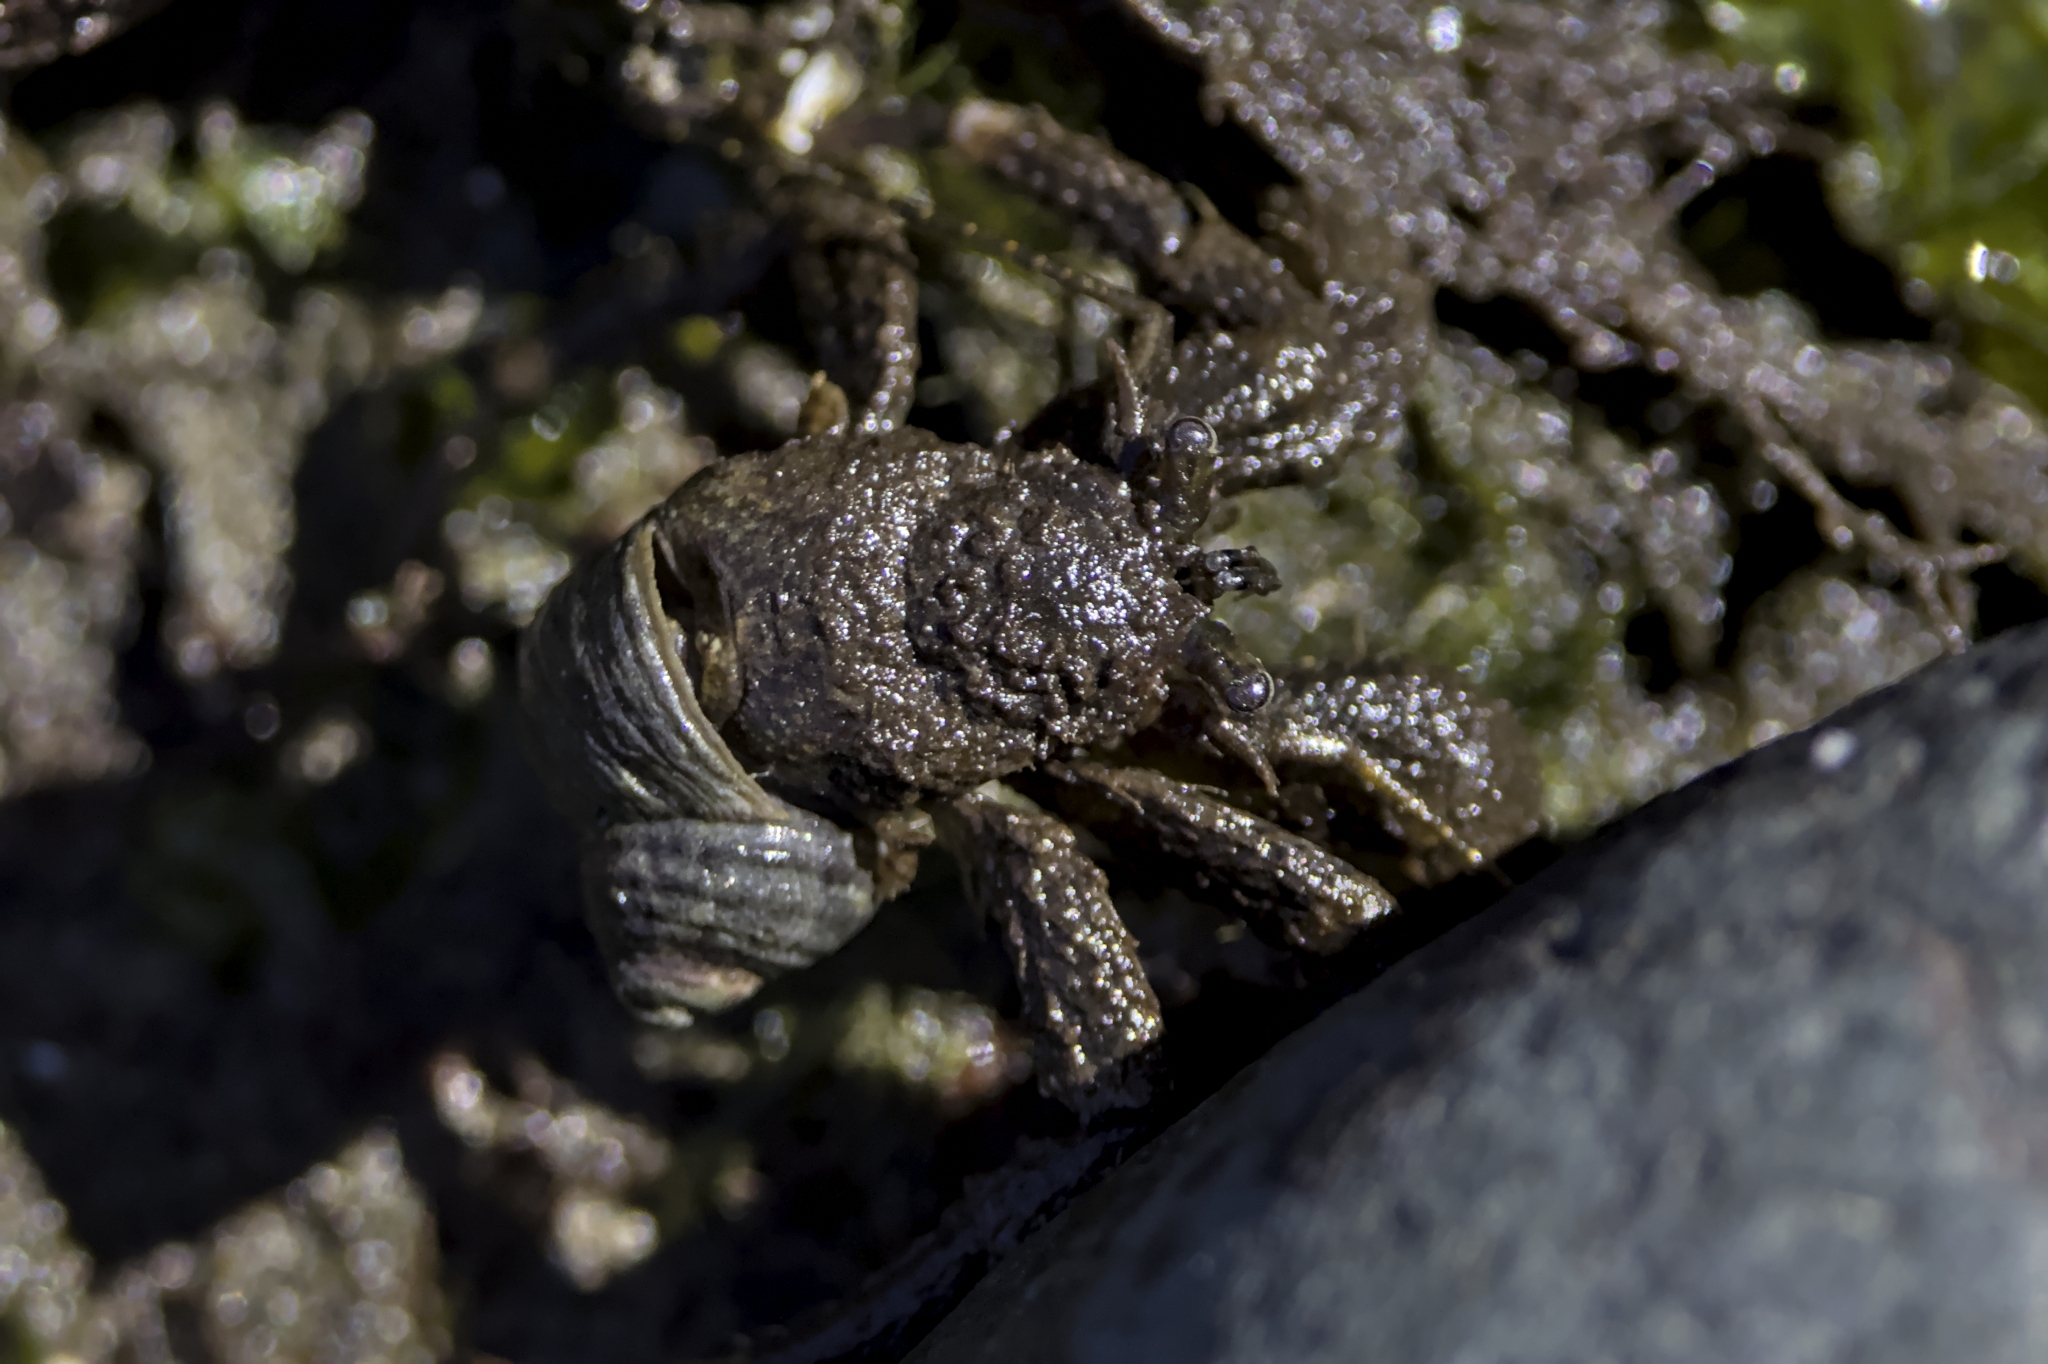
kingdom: Animalia
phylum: Arthropoda
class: Malacostraca
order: Decapoda
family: Paguridae
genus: Pagurus
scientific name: Pagurus hirsutiusculus
